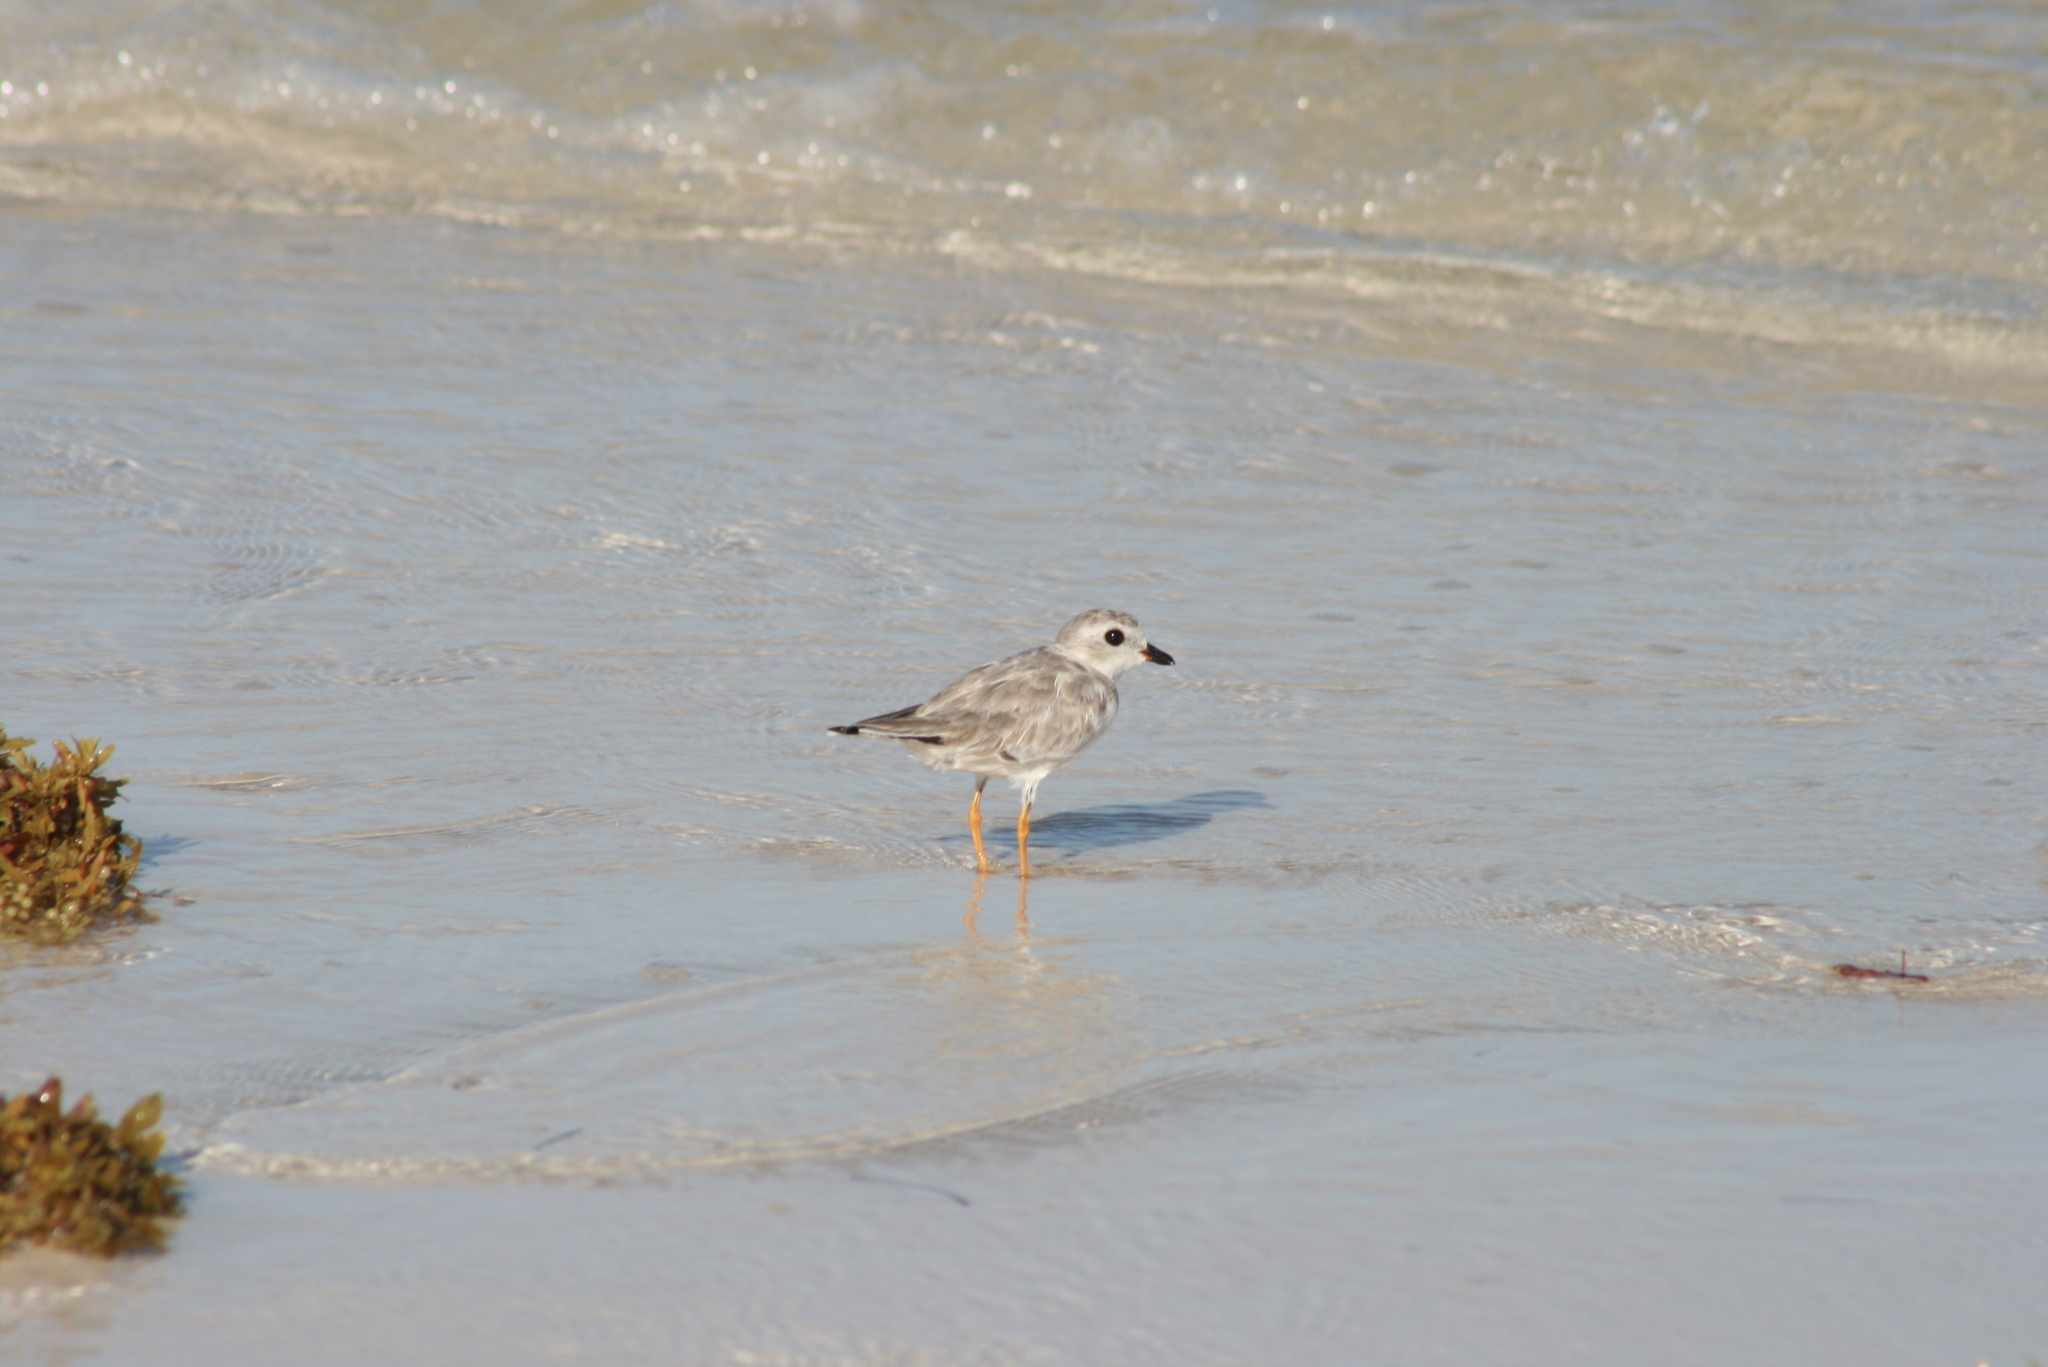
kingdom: Animalia
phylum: Chordata
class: Aves
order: Charadriiformes
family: Charadriidae
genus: Charadrius
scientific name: Charadrius melodus
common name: Piping plover
